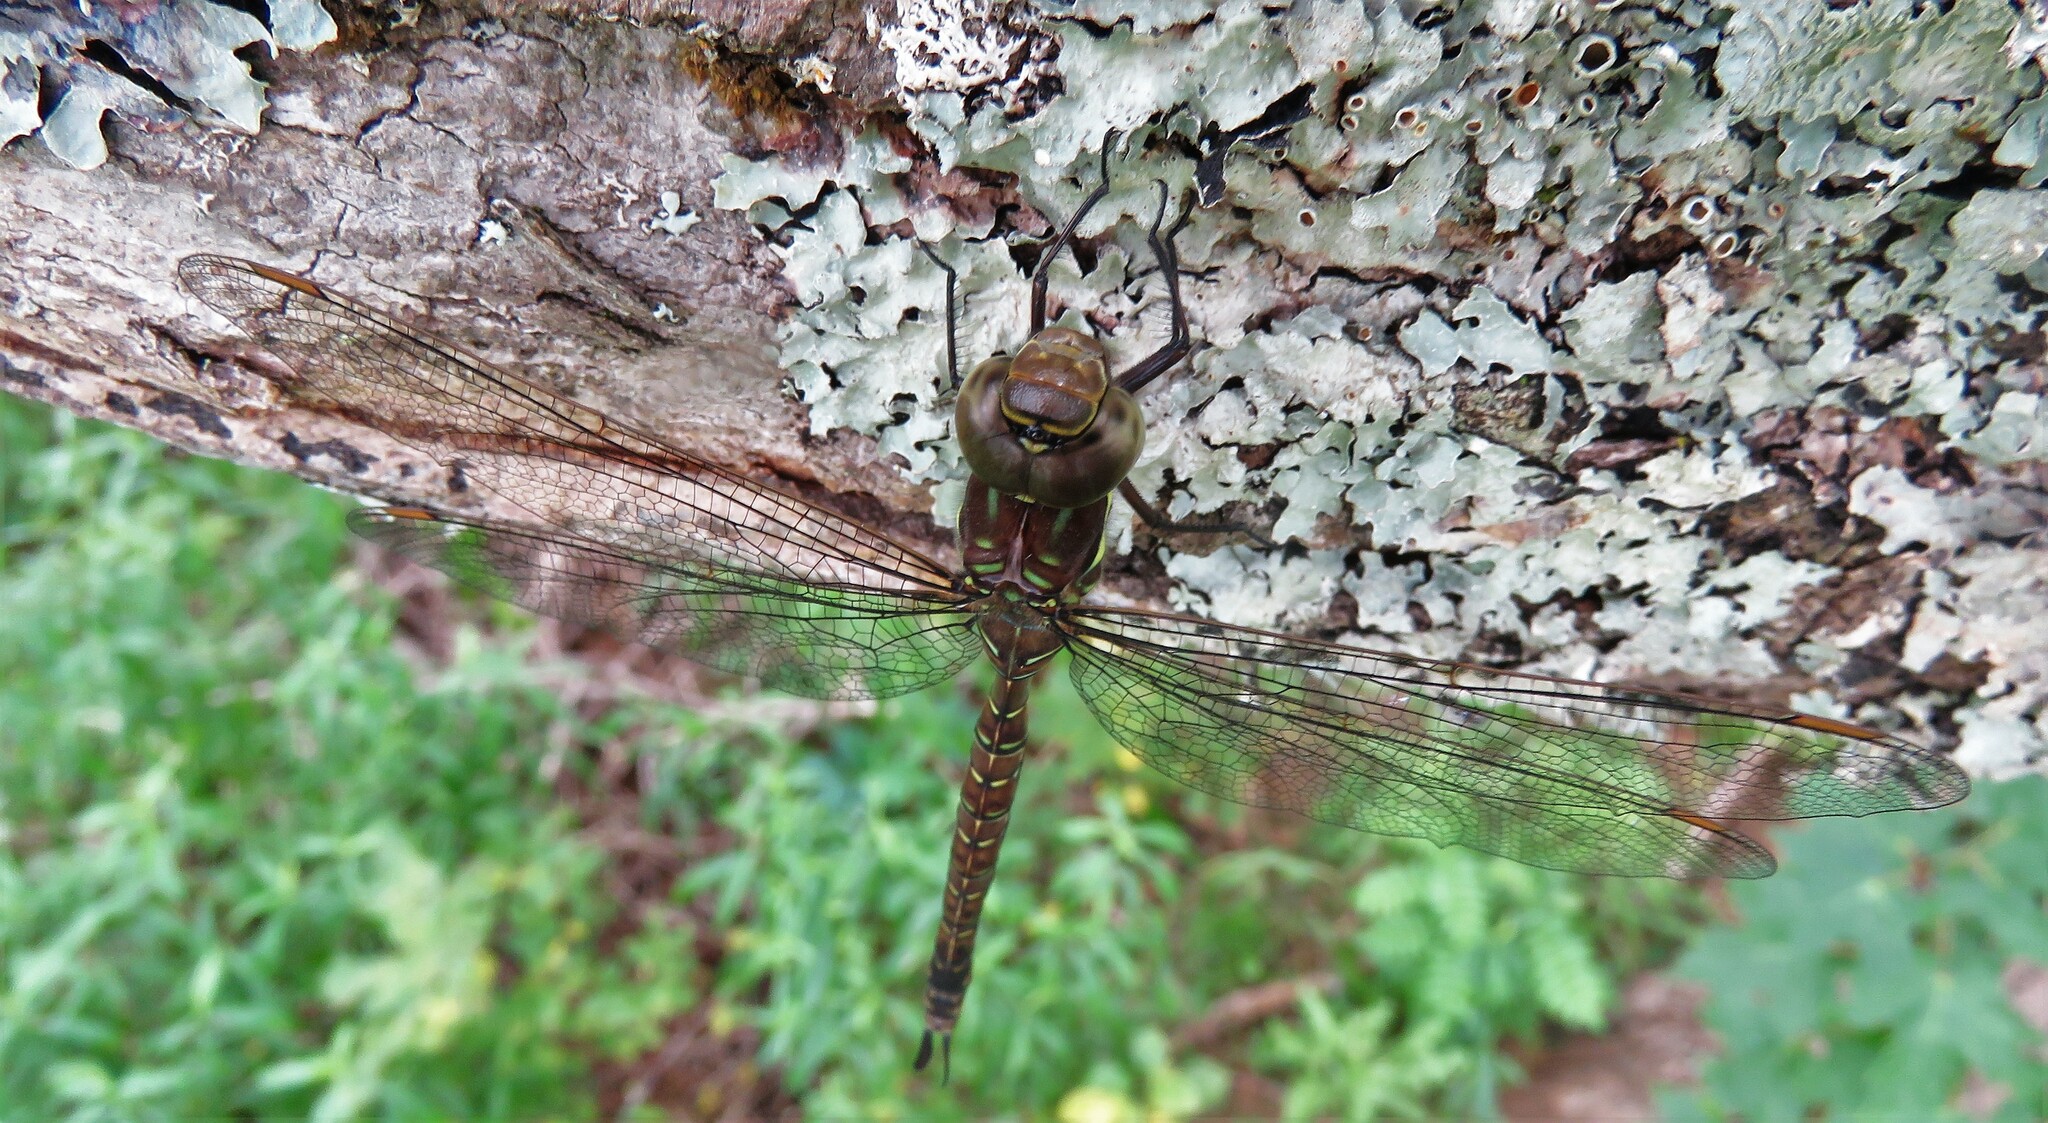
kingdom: Animalia
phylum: Arthropoda
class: Insecta
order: Odonata
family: Aeshnidae
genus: Aeshna
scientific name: Aeshna umbrosa
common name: Shadow darner
